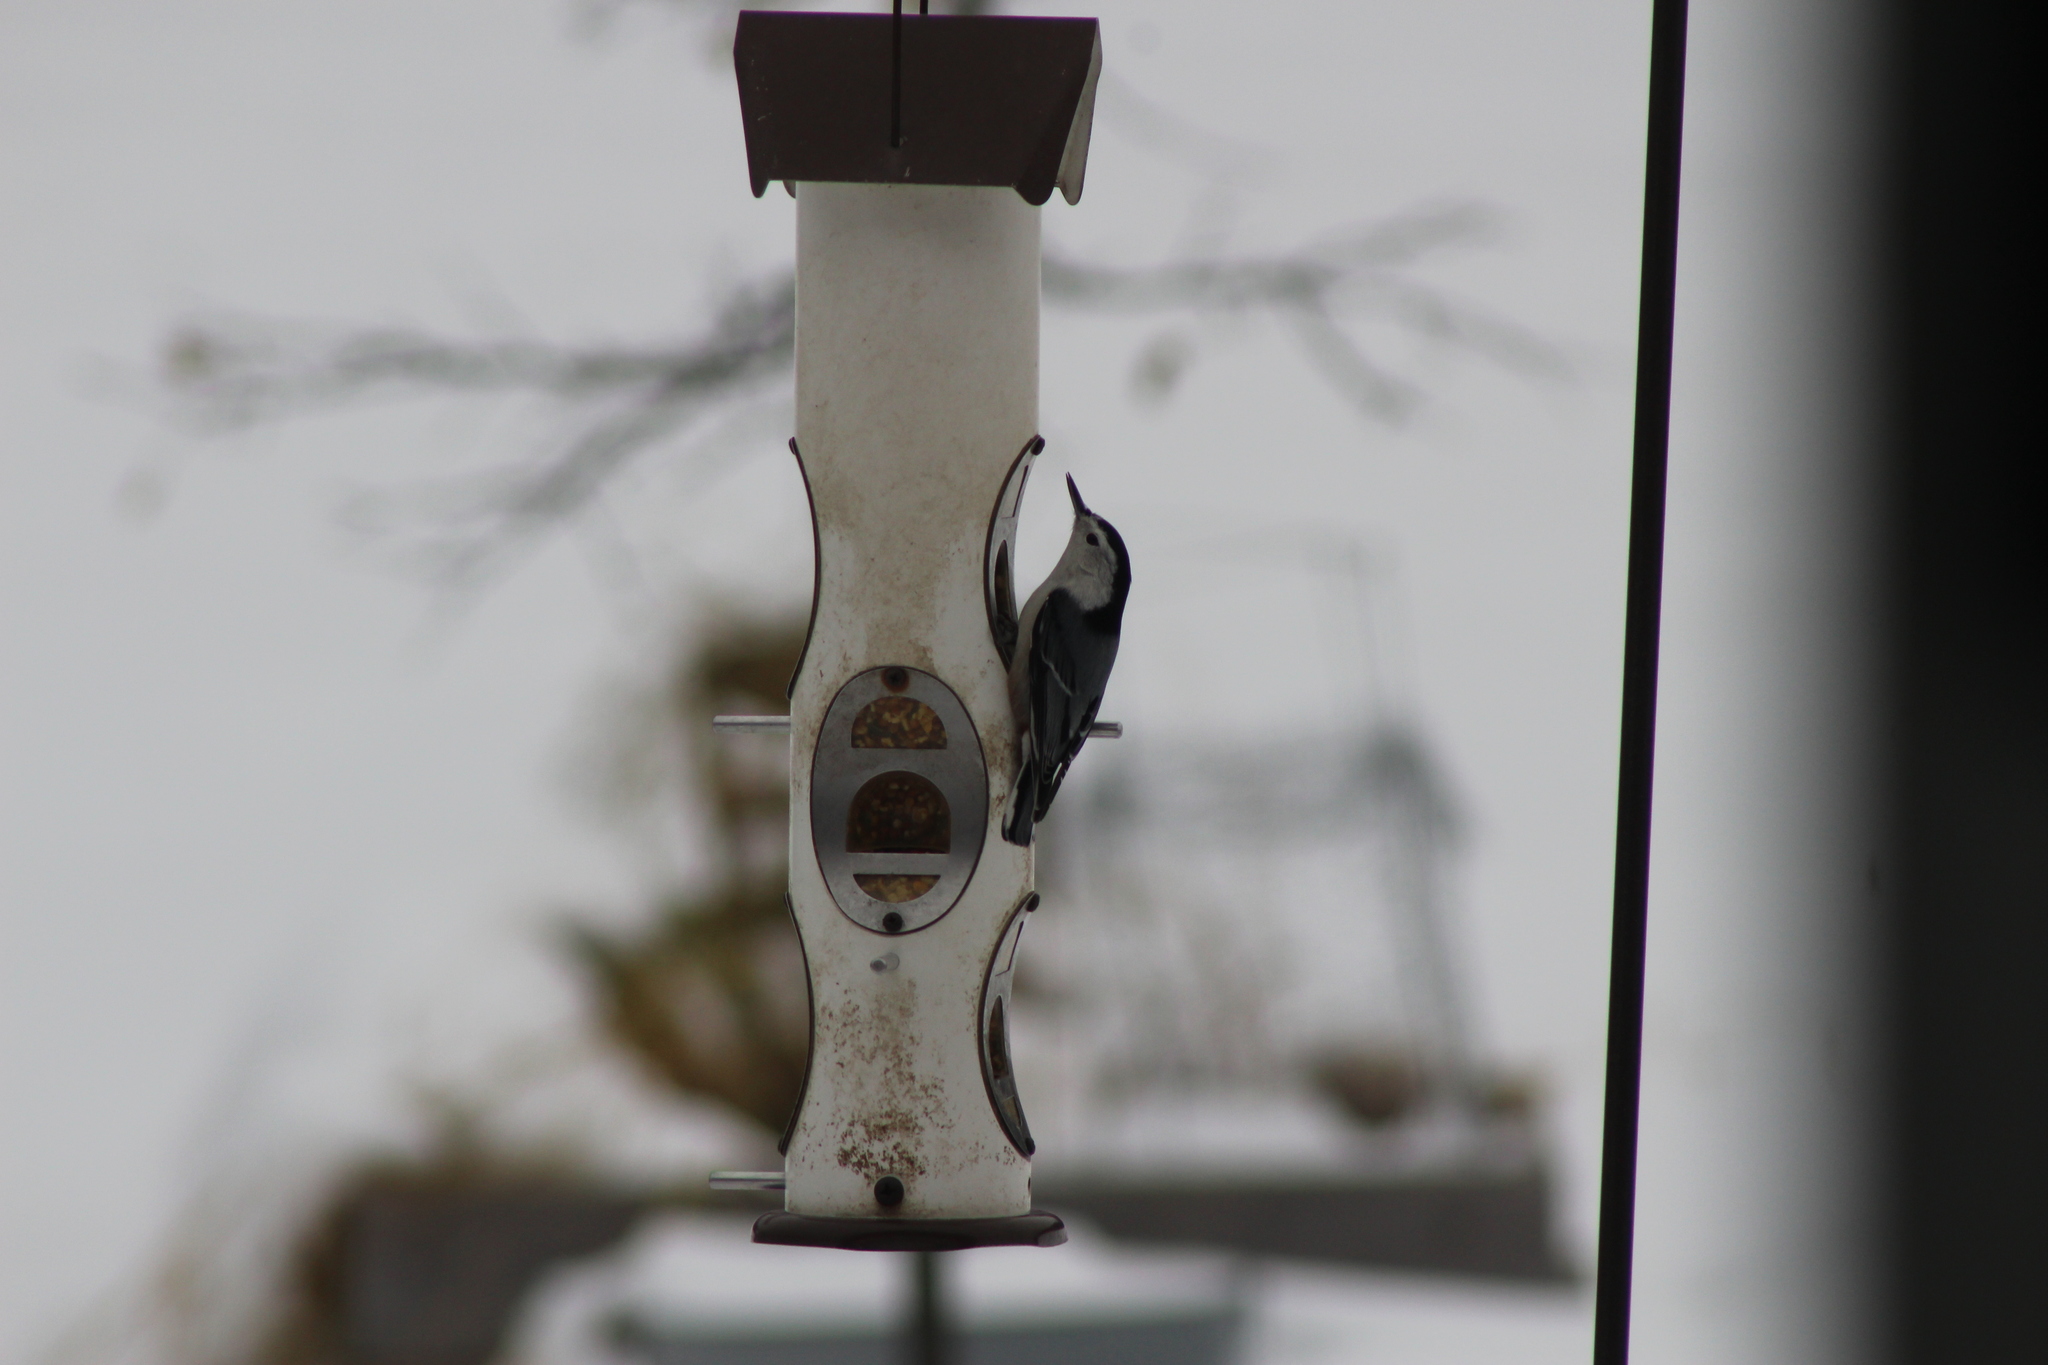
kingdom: Animalia
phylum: Chordata
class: Aves
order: Passeriformes
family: Sittidae
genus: Sitta
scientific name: Sitta carolinensis
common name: White-breasted nuthatch
